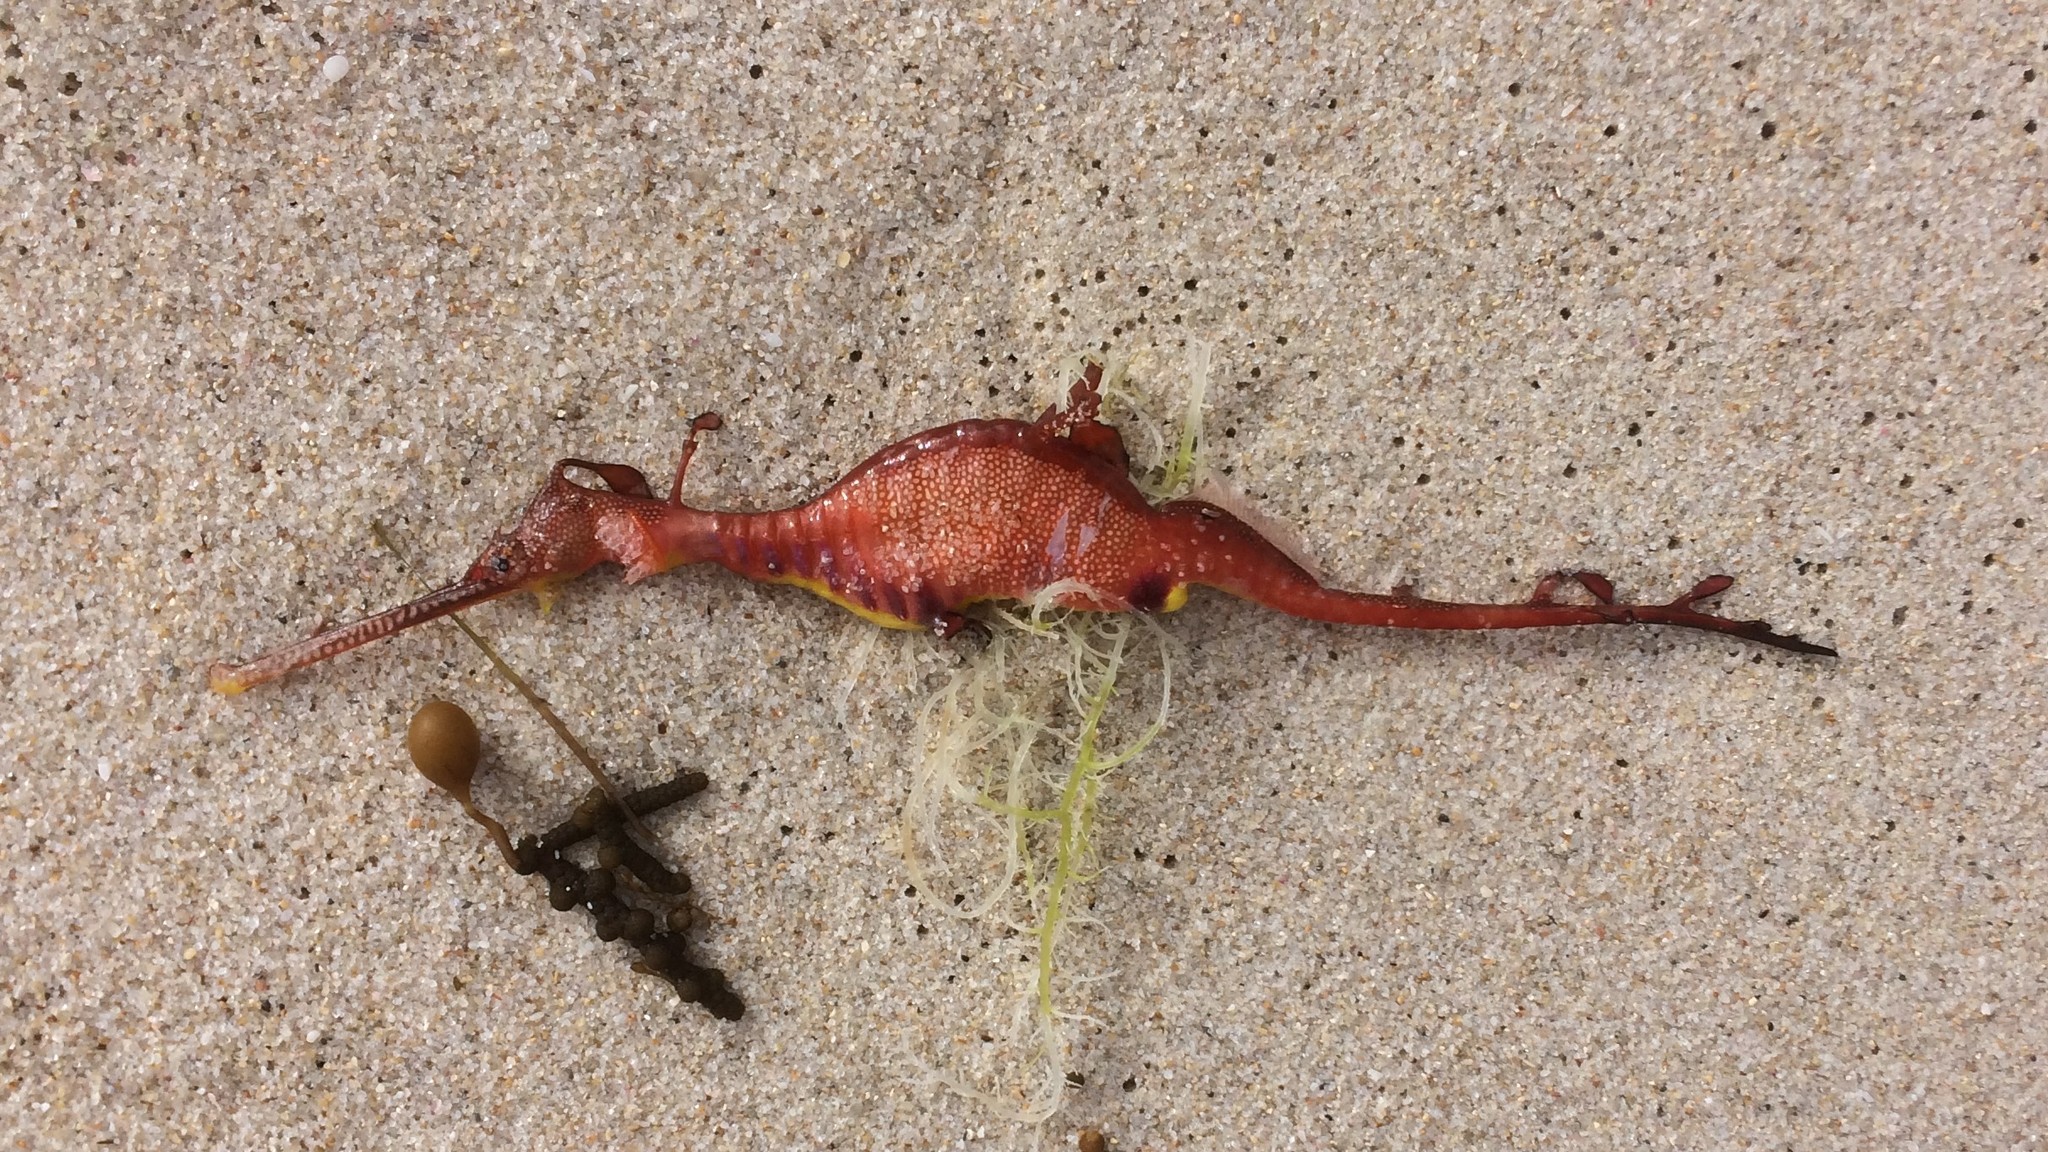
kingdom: Animalia
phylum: Chordata
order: Syngnathiformes
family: Syngnathidae
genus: Phyllopteryx
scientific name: Phyllopteryx taeniolatus
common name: Common seadragon
